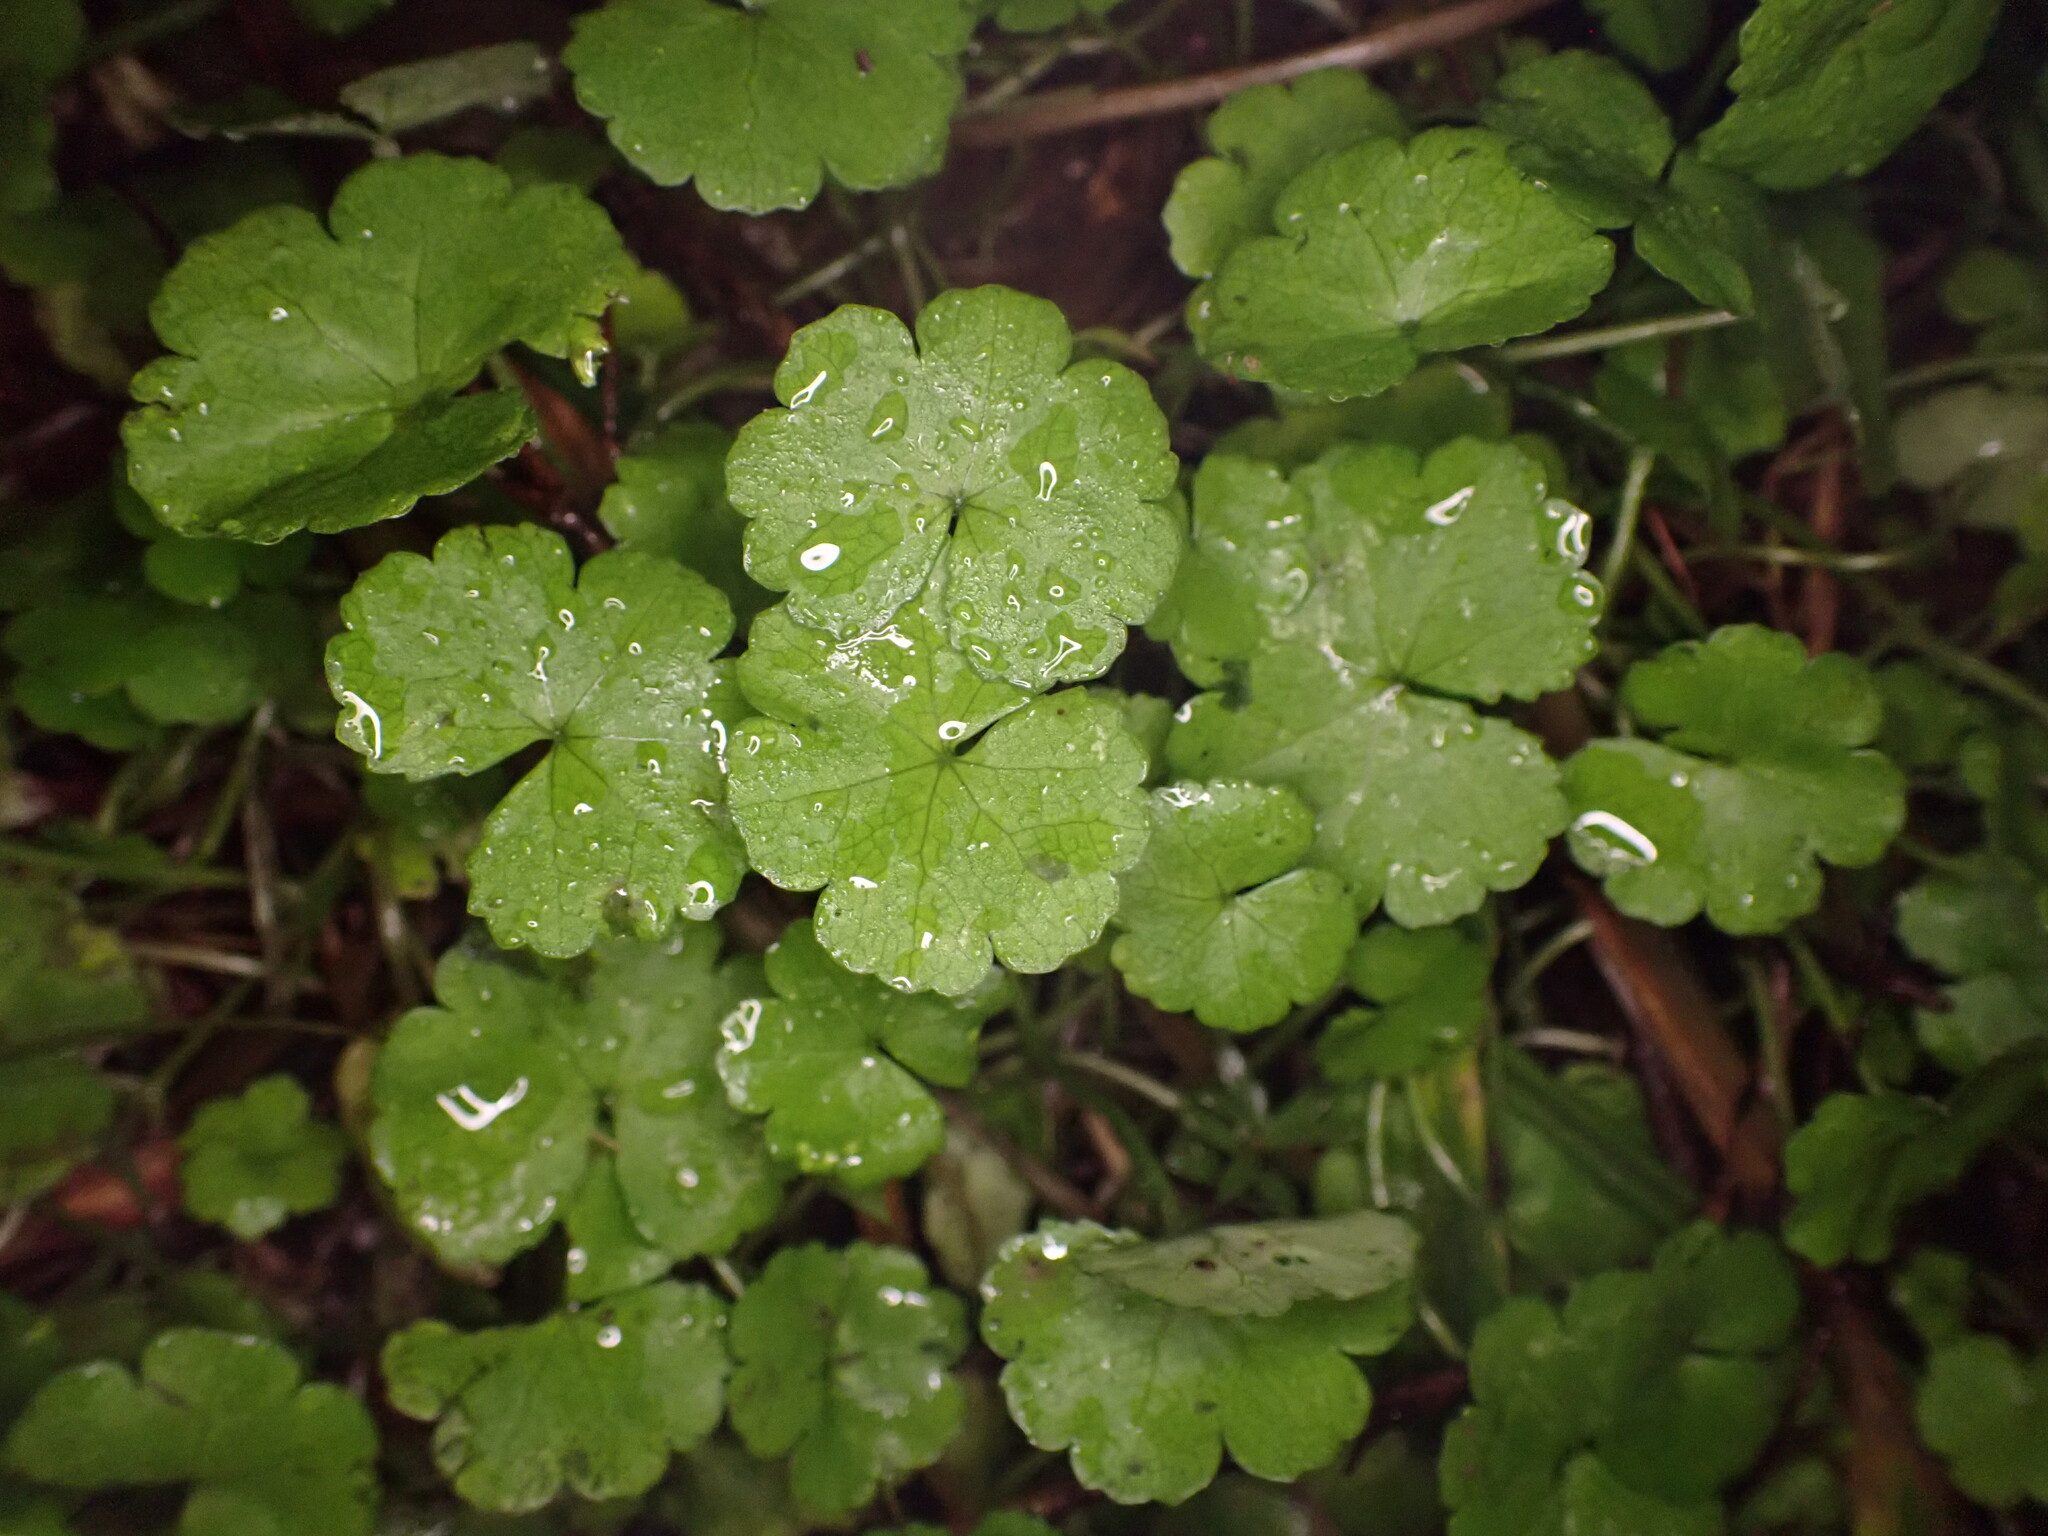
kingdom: Plantae
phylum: Tracheophyta
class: Magnoliopsida
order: Apiales
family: Araliaceae
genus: Hydrocotyle
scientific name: Hydrocotyle heteromeria
